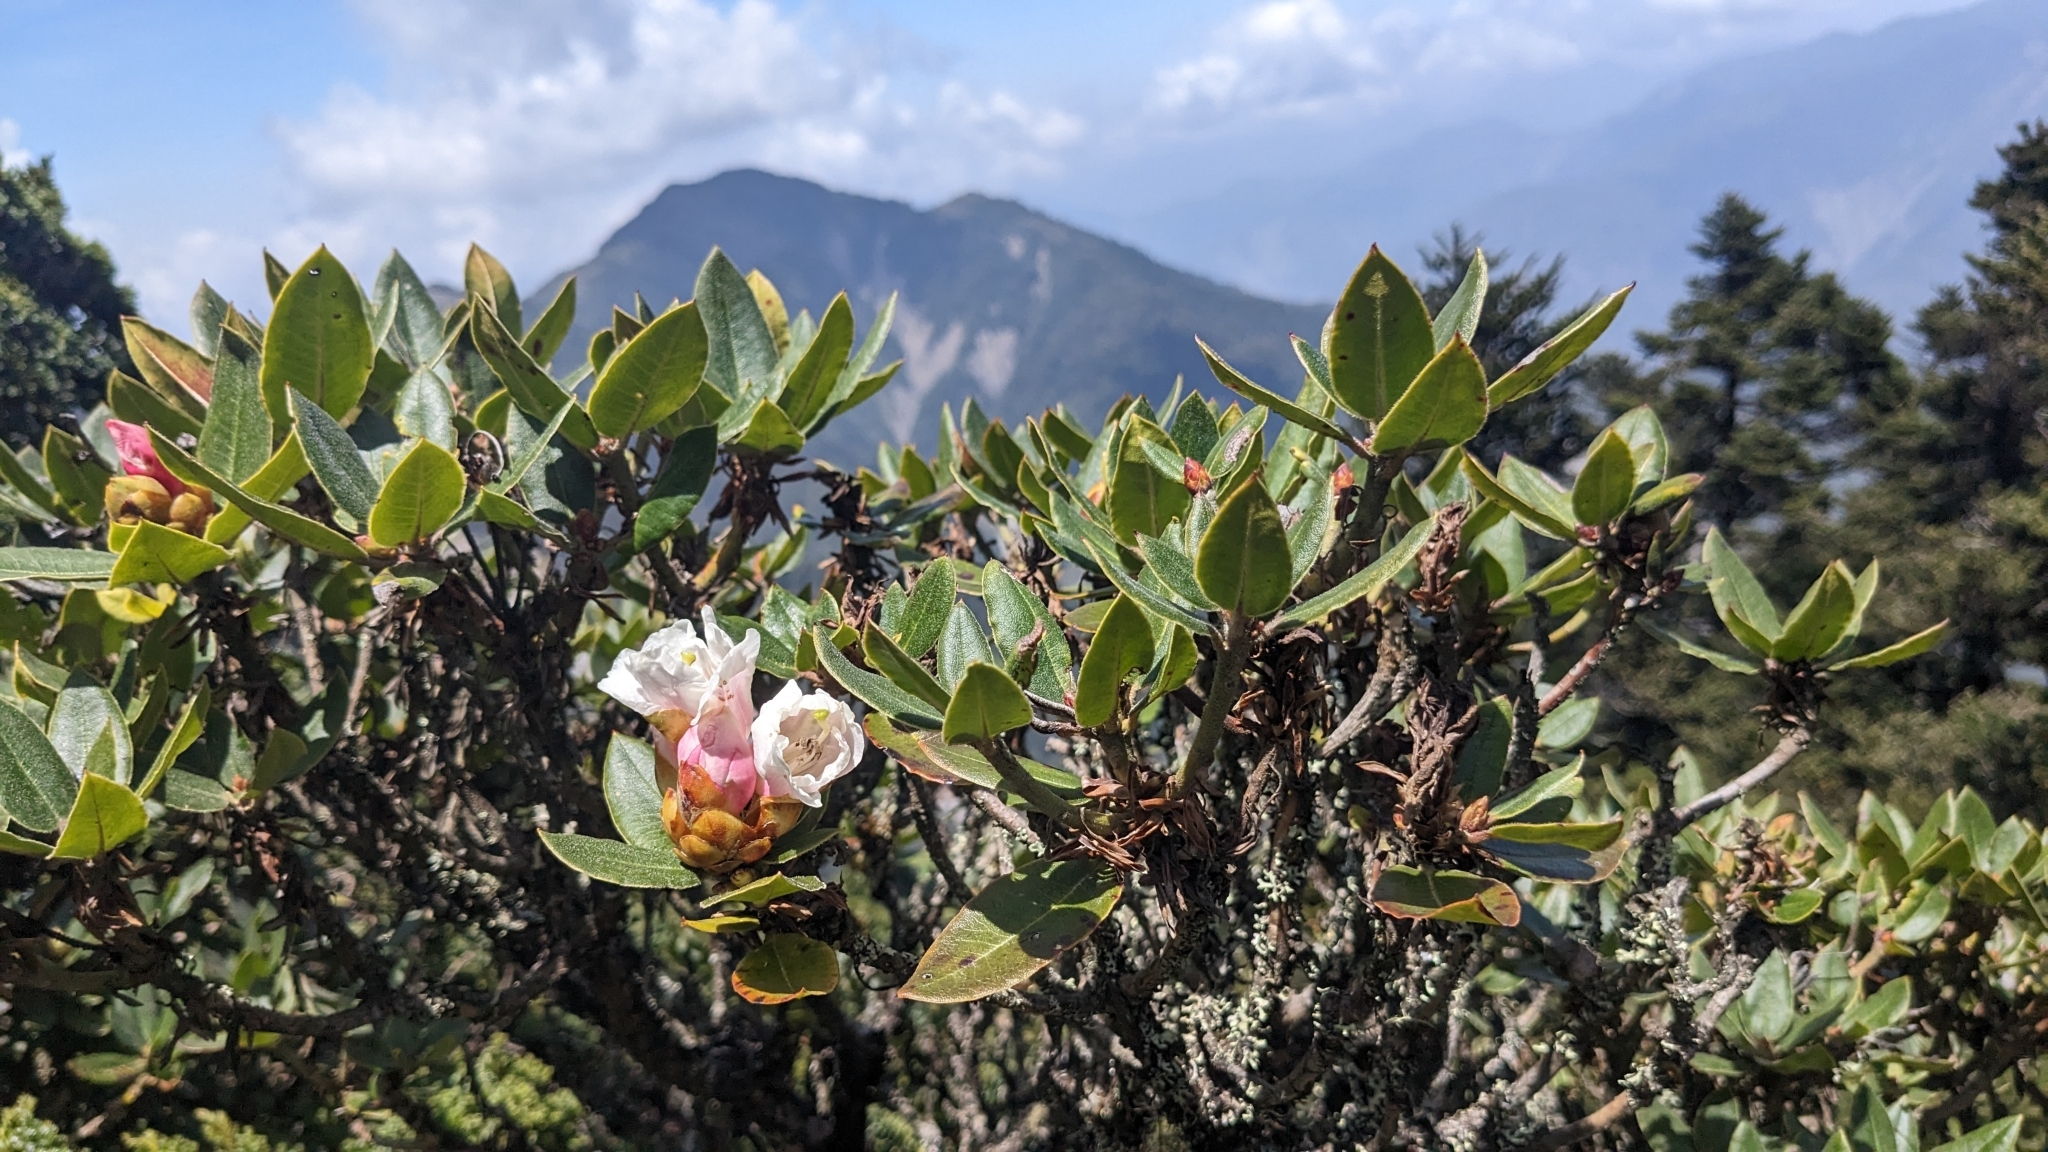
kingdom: Plantae
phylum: Tracheophyta
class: Magnoliopsida
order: Ericales
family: Ericaceae
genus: Rhododendron
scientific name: Rhododendron pseudochrysanthum
